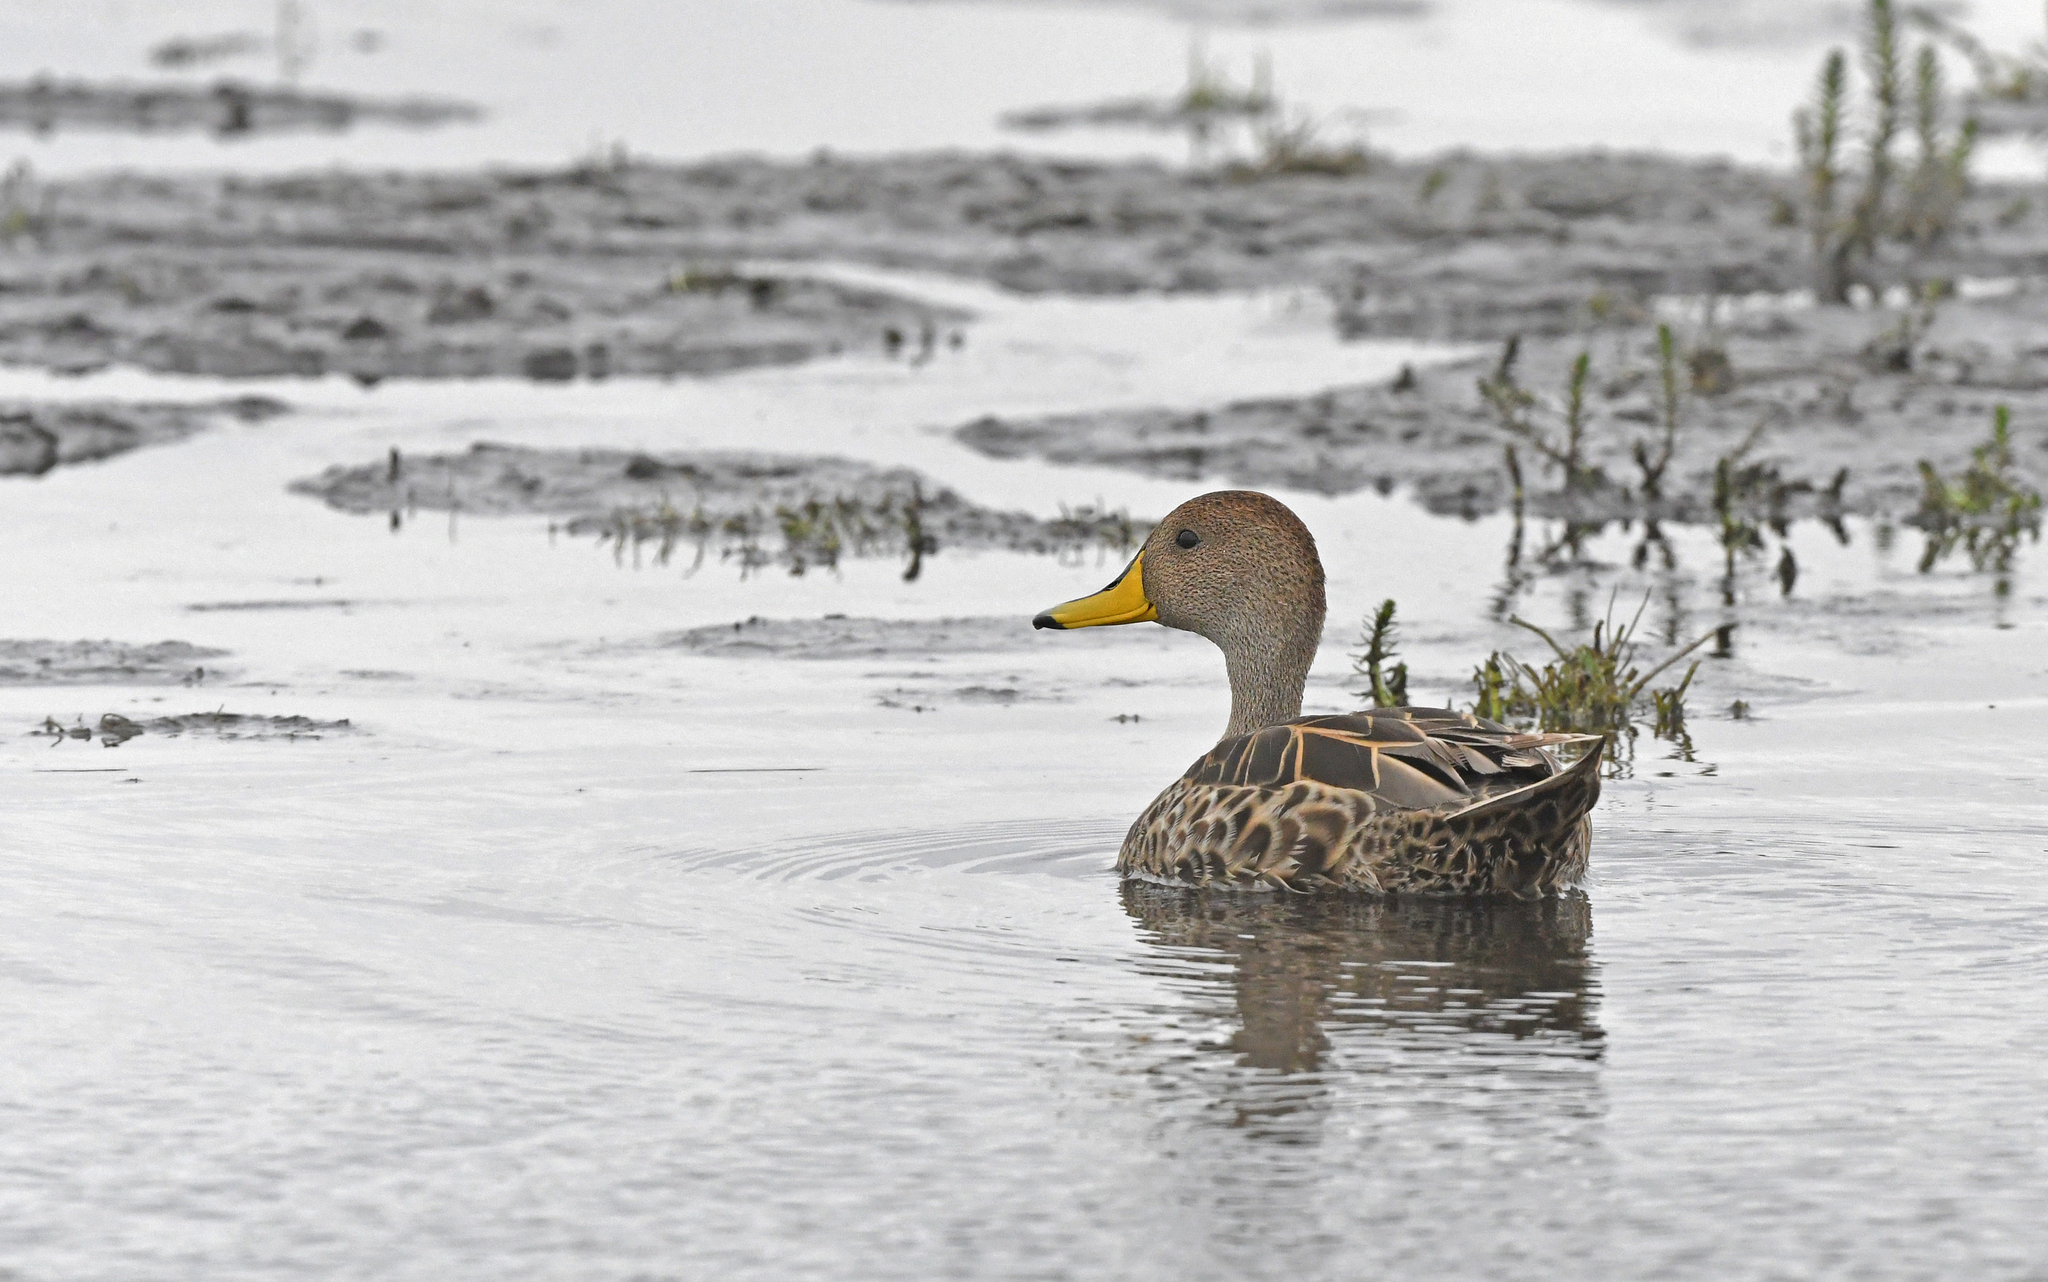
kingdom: Animalia
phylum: Chordata
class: Aves
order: Anseriformes
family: Anatidae
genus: Anas
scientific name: Anas georgica
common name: Yellow-billed pintail
